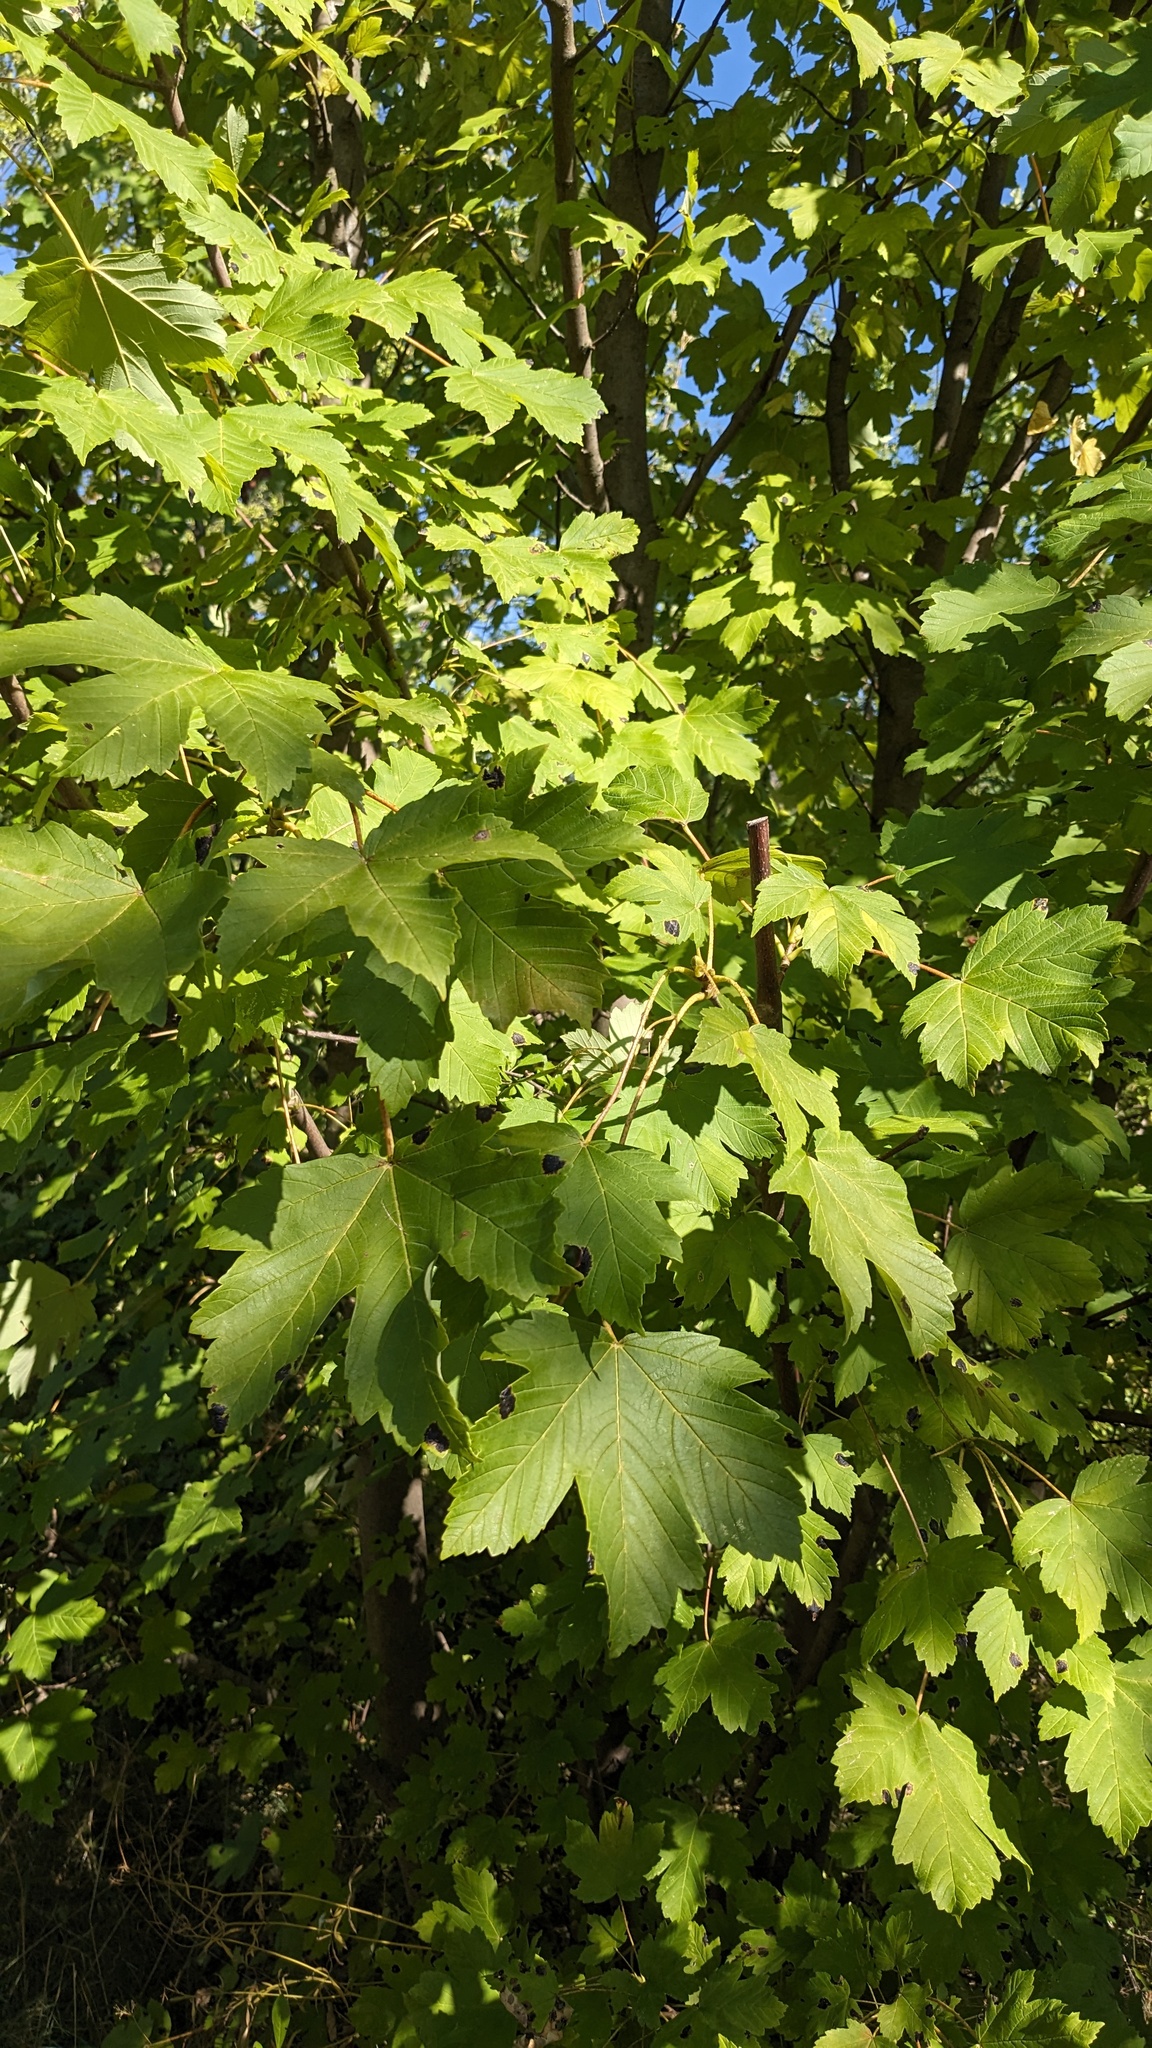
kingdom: Fungi
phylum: Ascomycota
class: Leotiomycetes
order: Rhytismatales
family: Rhytismataceae
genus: Rhytisma
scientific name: Rhytisma acerinum
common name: European tar spot
